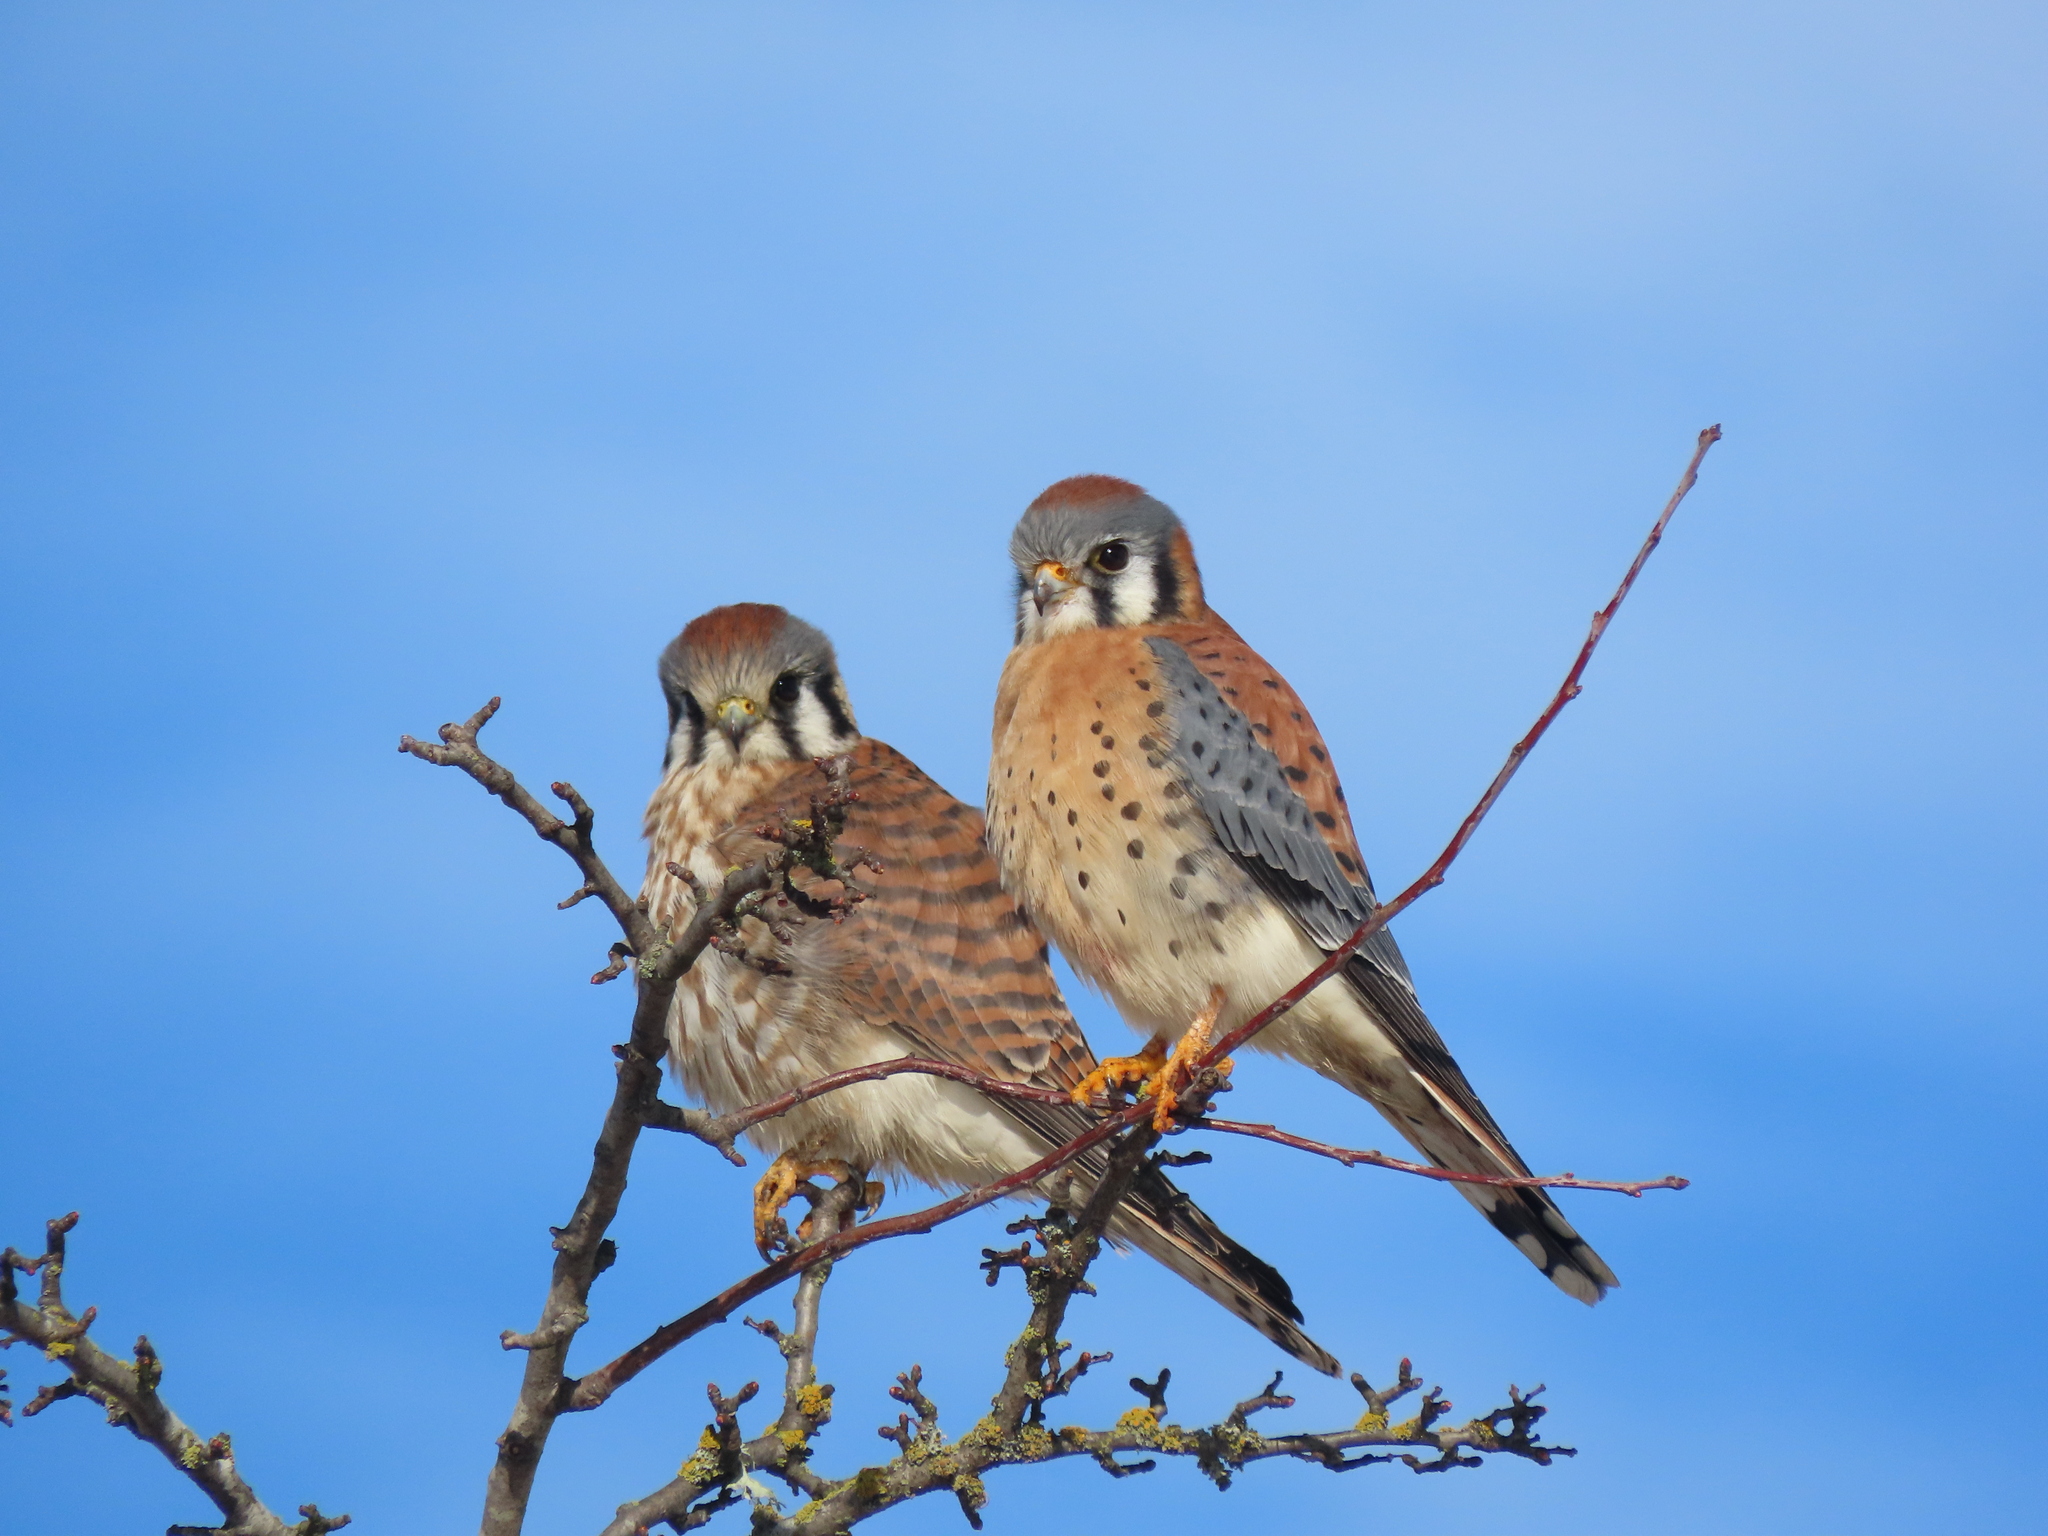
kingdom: Animalia
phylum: Chordata
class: Aves
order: Falconiformes
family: Falconidae
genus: Falco
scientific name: Falco sparverius
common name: American kestrel
